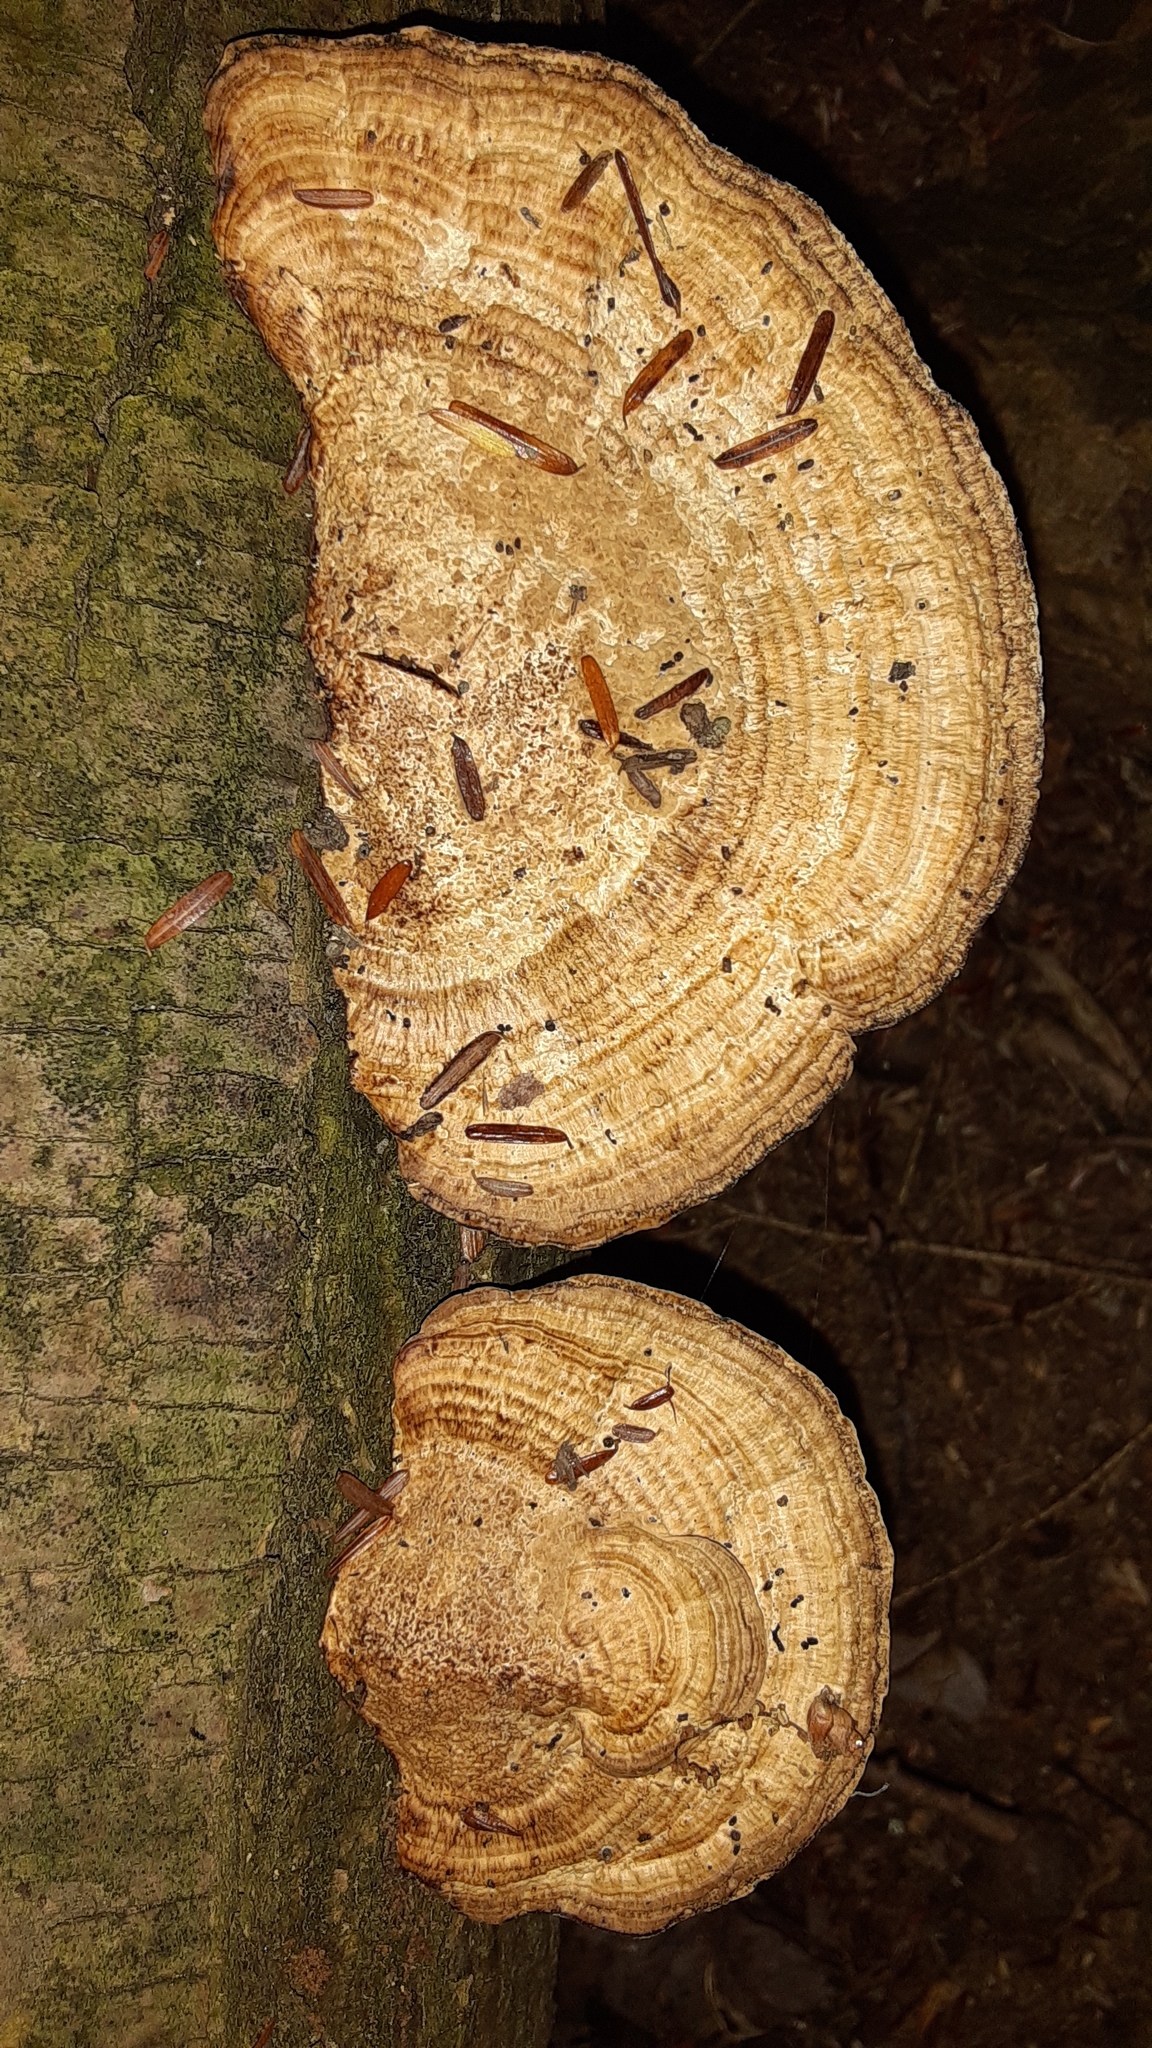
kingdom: Fungi
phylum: Basidiomycota
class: Agaricomycetes
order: Polyporales
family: Polyporaceae
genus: Daedaleopsis
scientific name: Daedaleopsis confragosa
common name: Blushing bracket
